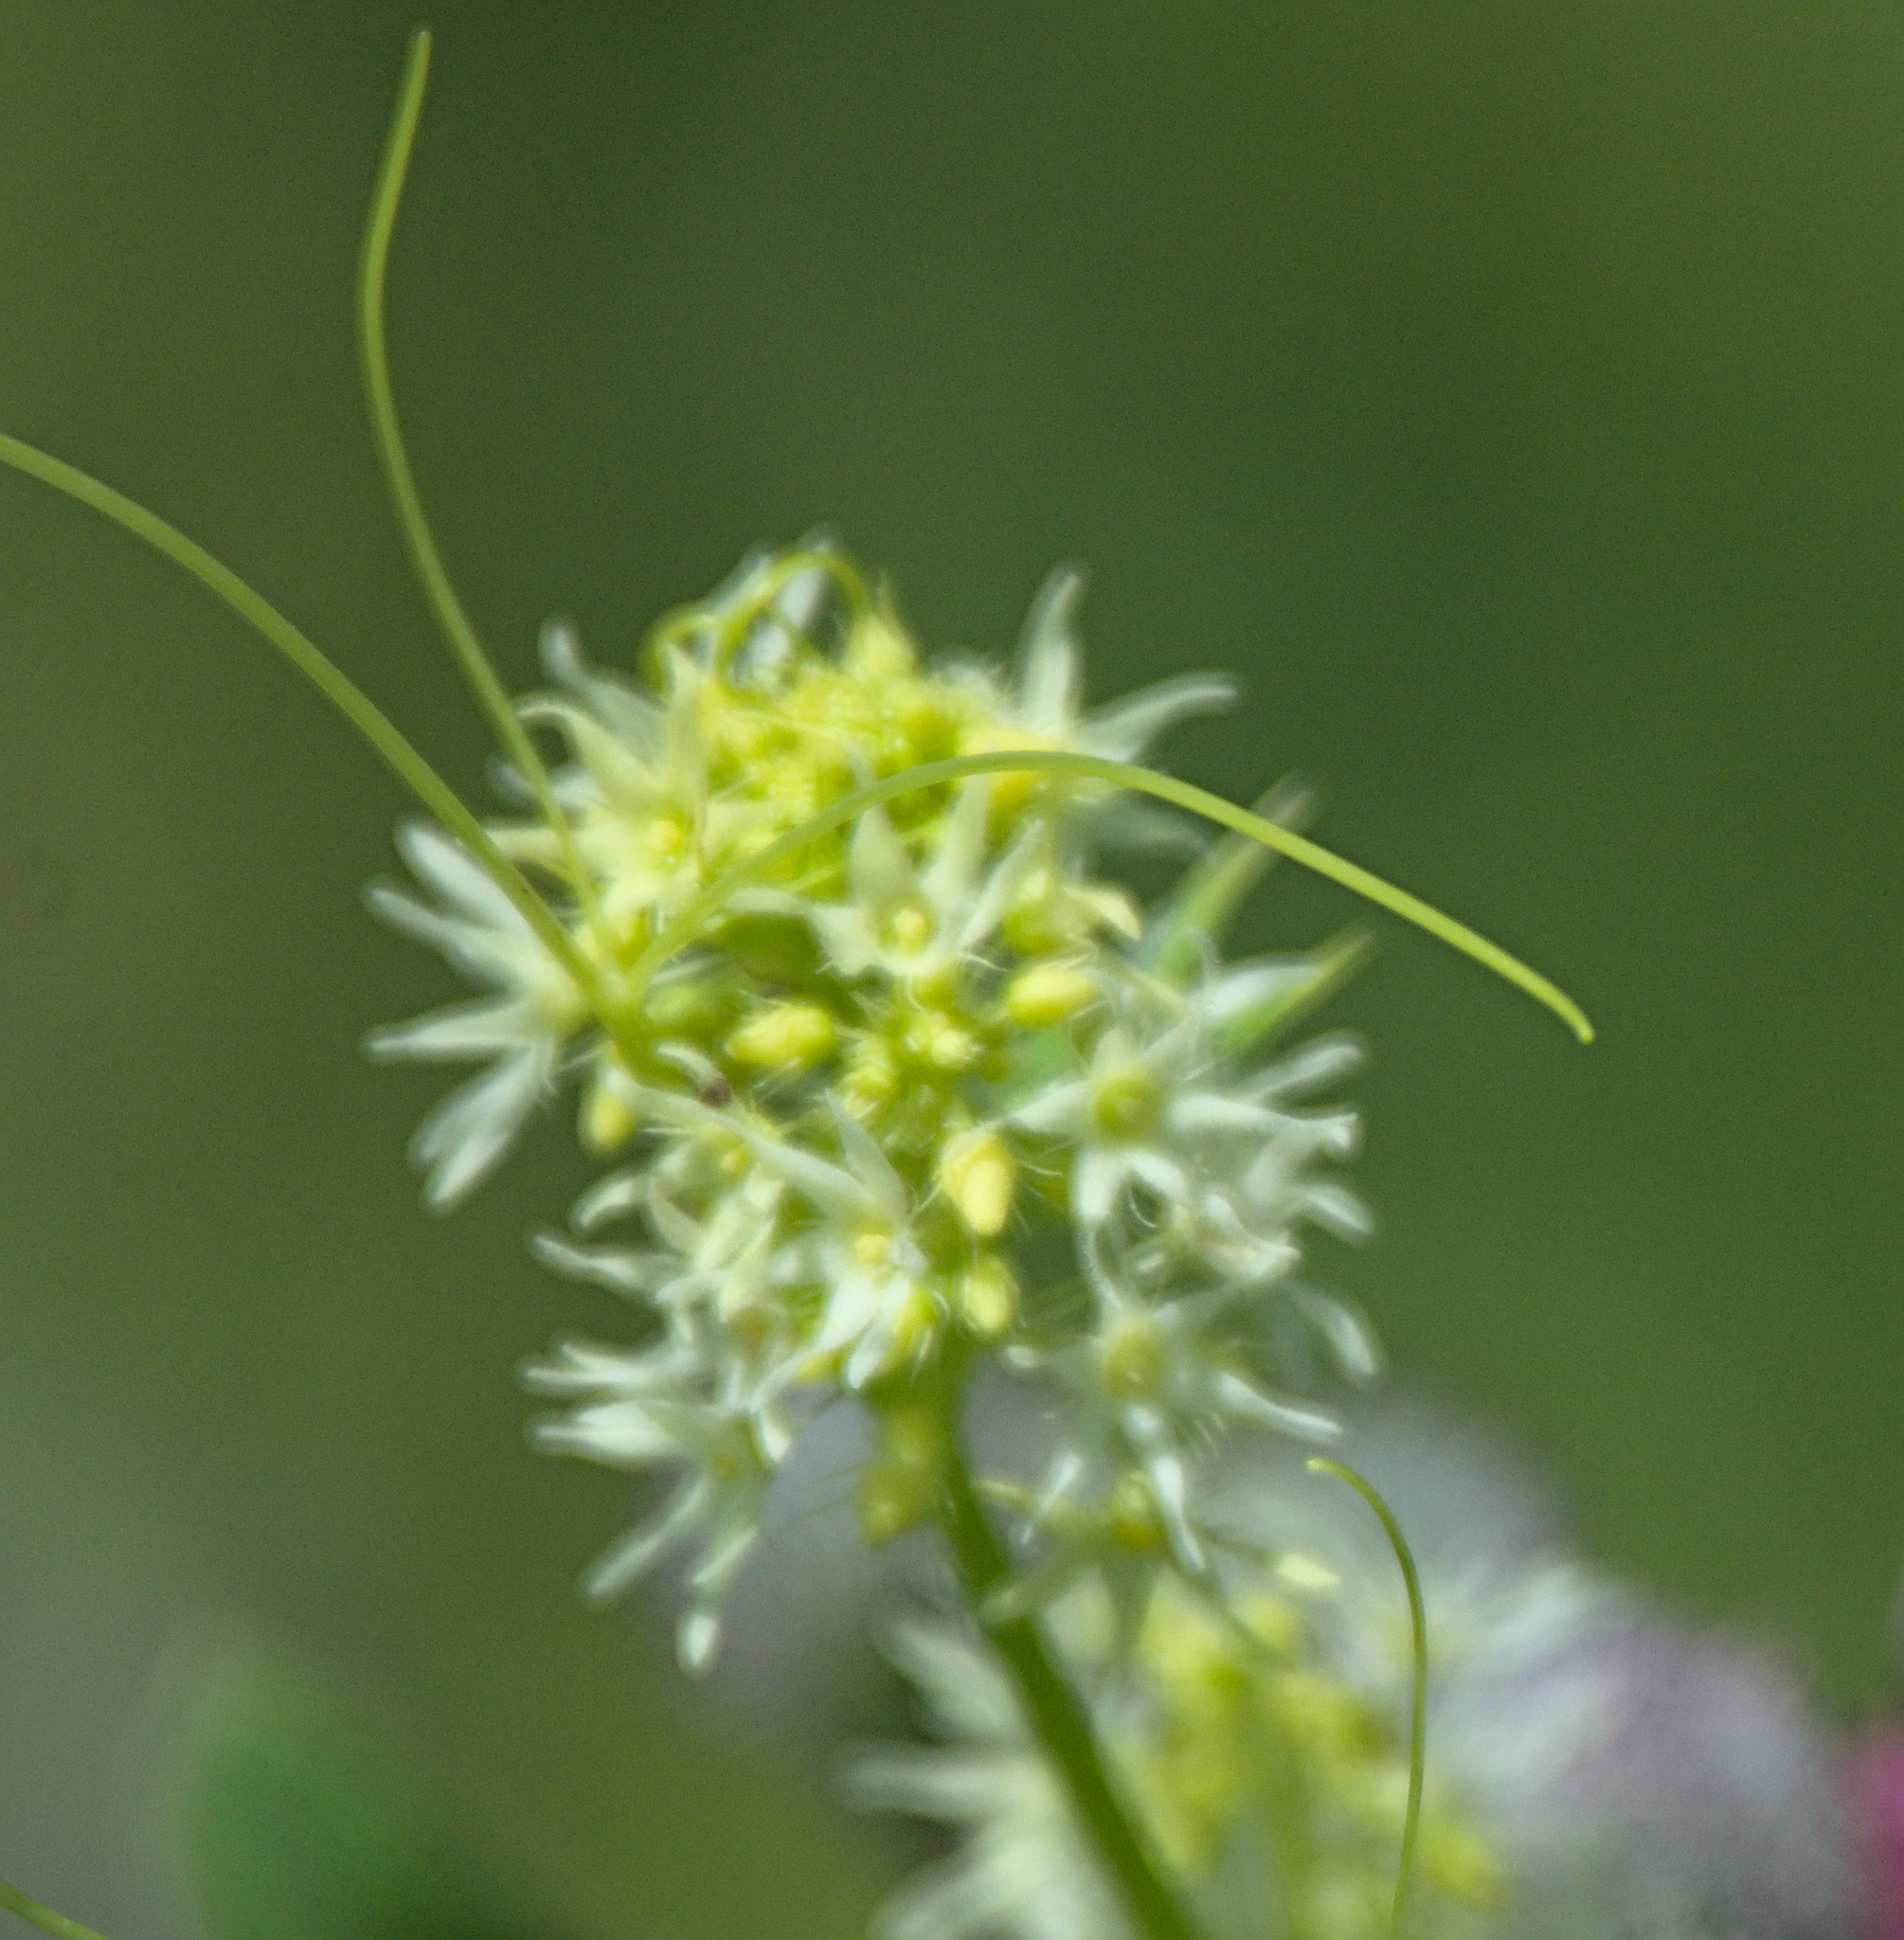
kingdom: Plantae
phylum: Tracheophyta
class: Magnoliopsida
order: Cucurbitales
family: Cucurbitaceae
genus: Echinocystis
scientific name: Echinocystis lobata
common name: Wild cucumber
